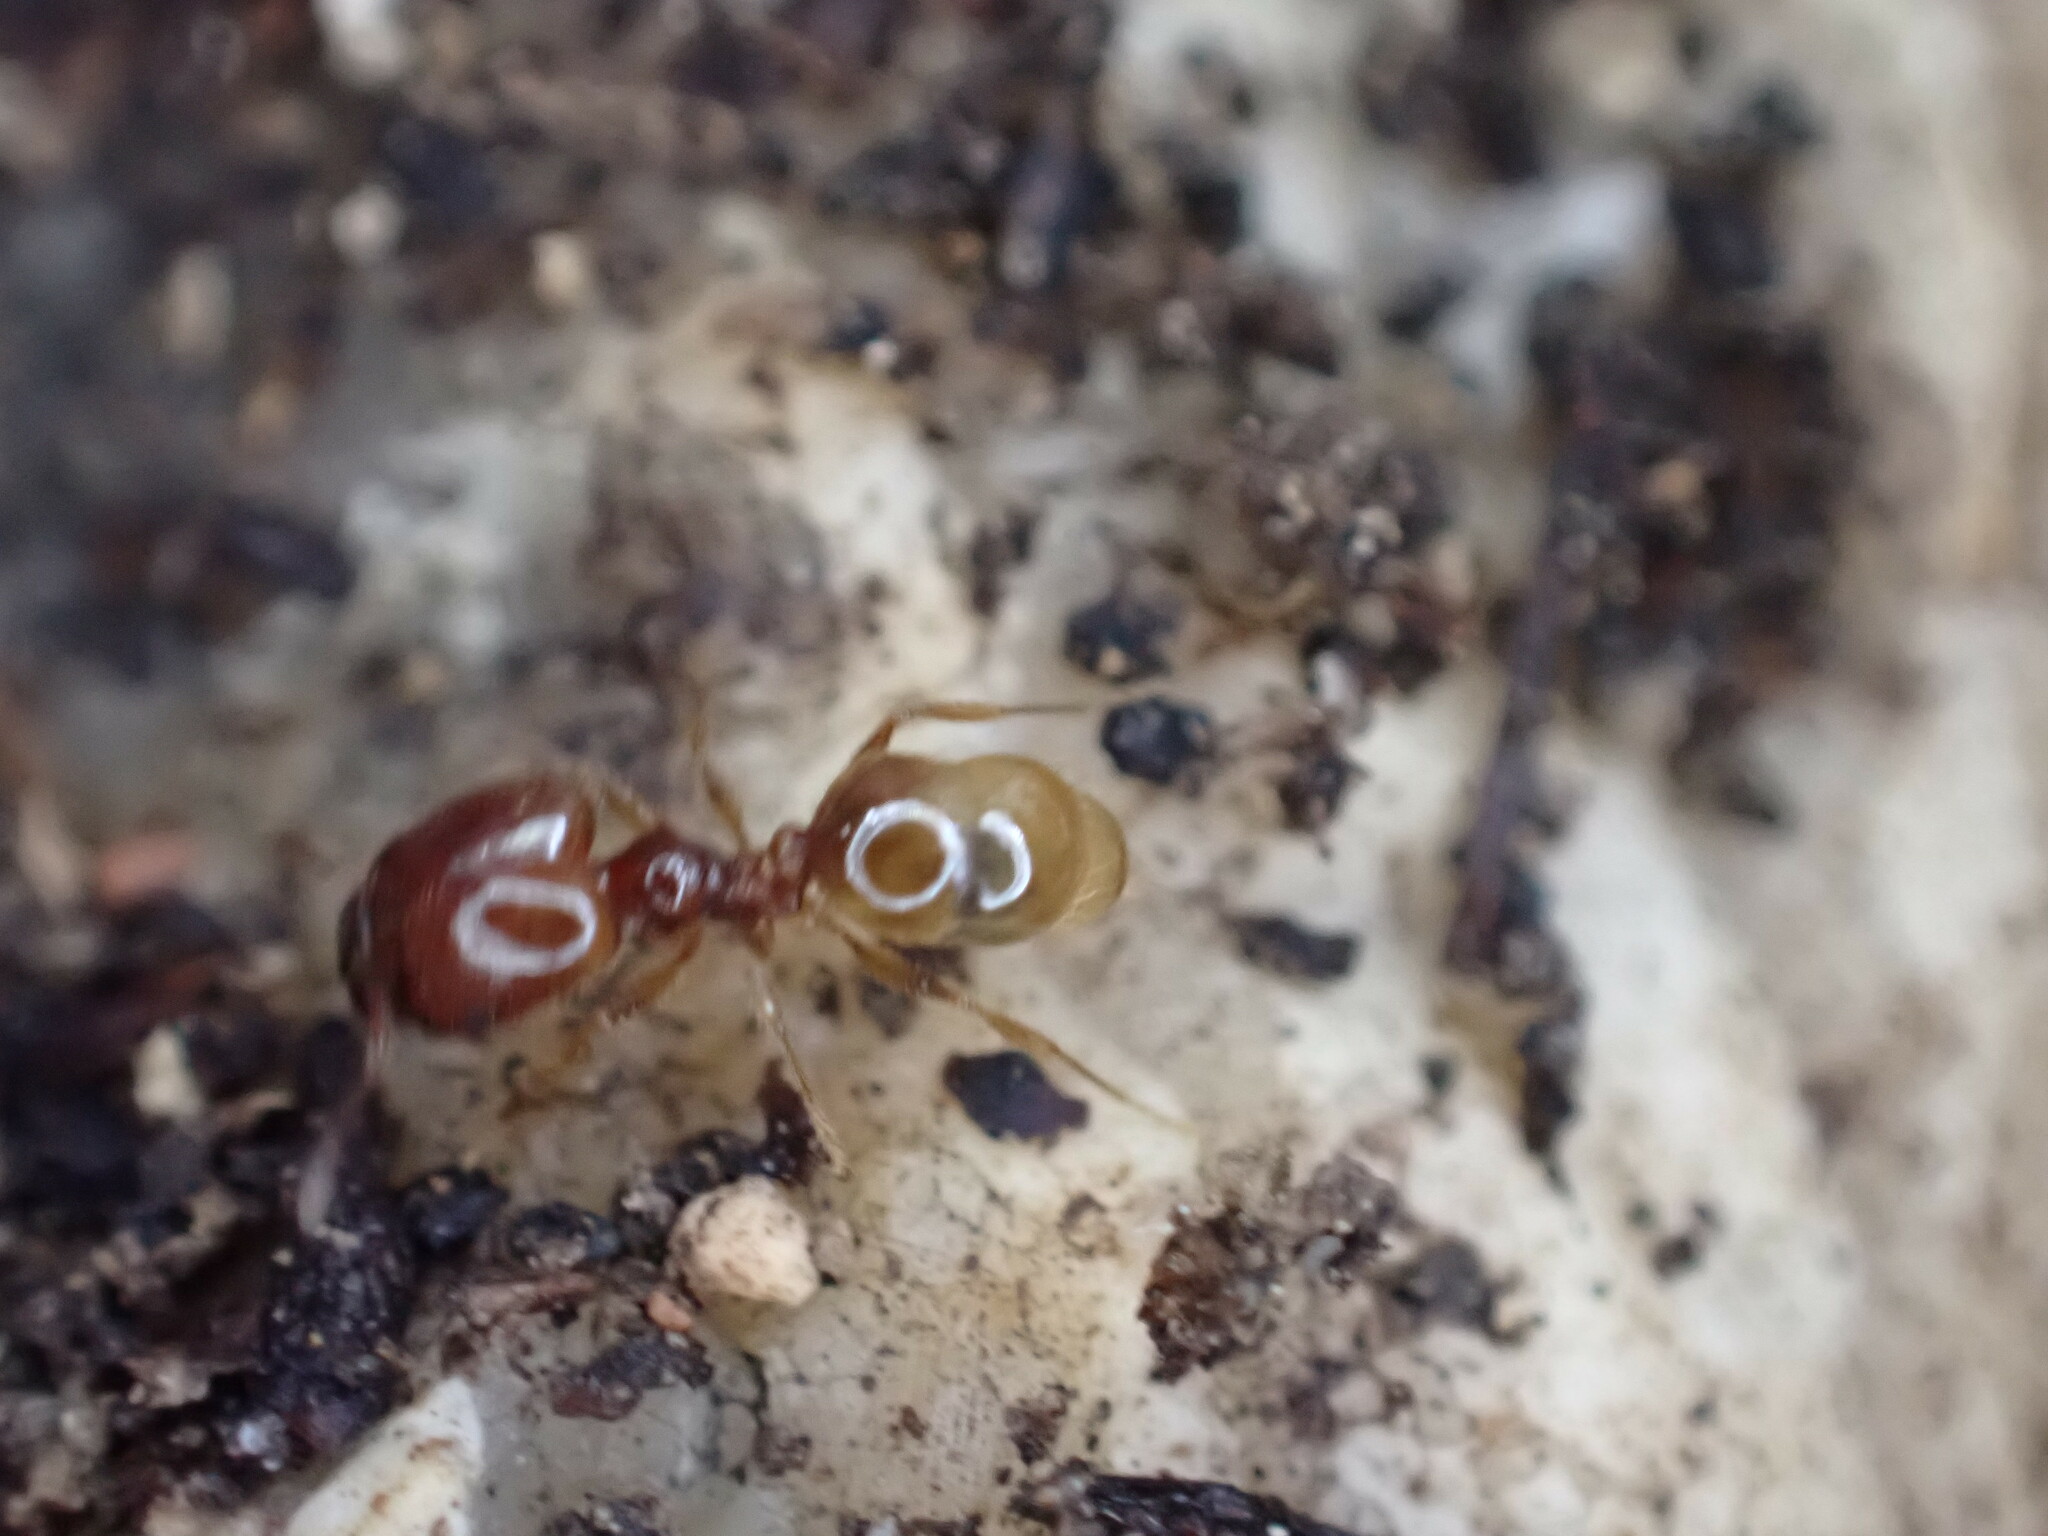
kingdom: Animalia
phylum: Arthropoda
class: Insecta
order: Hymenoptera
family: Formicidae
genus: Pheidole
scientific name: Pheidole pallidula
